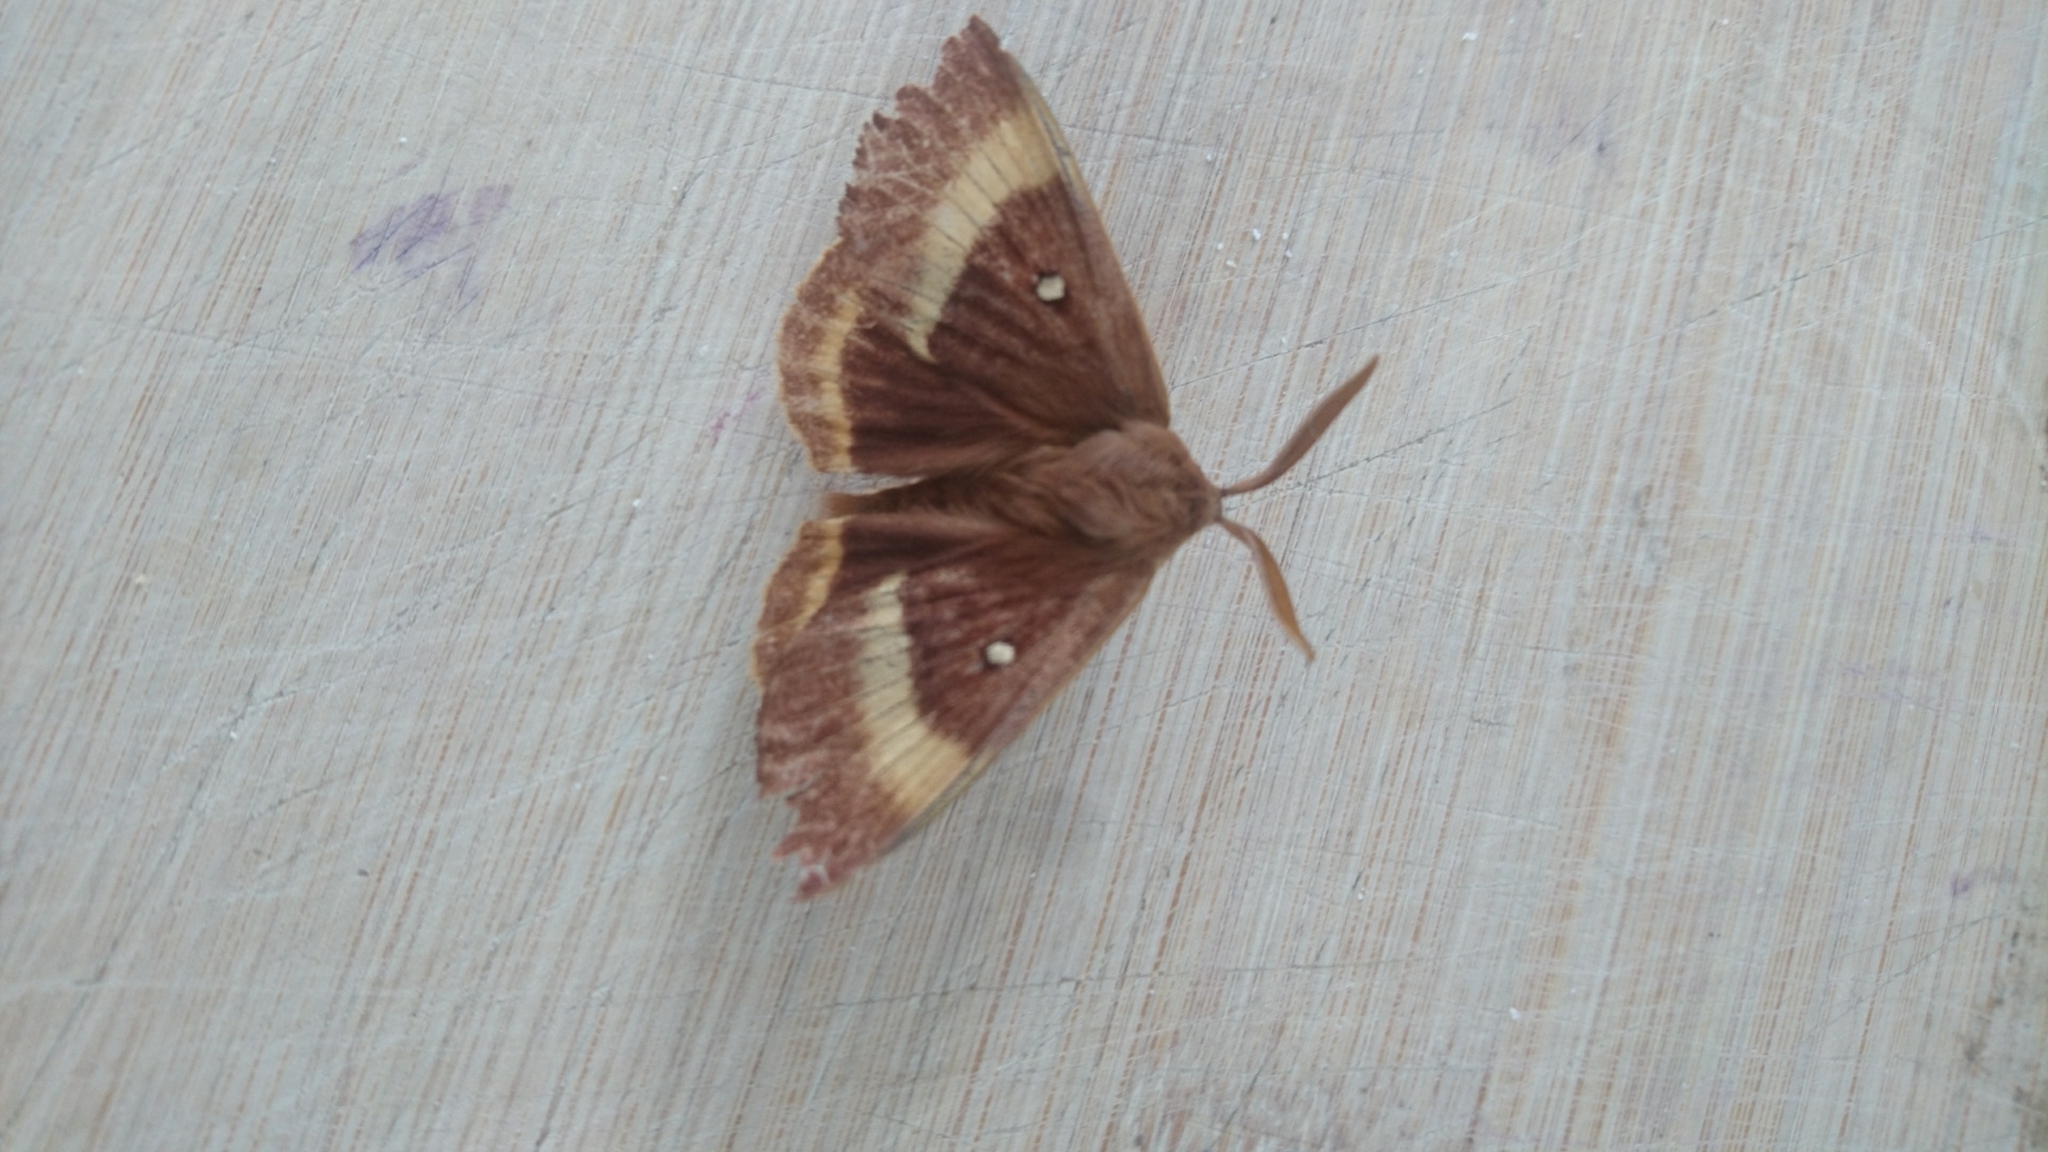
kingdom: Animalia
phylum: Arthropoda
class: Insecta
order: Lepidoptera
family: Lasiocampidae
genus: Lasiocampa
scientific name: Lasiocampa quercus
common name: Oak eggar
